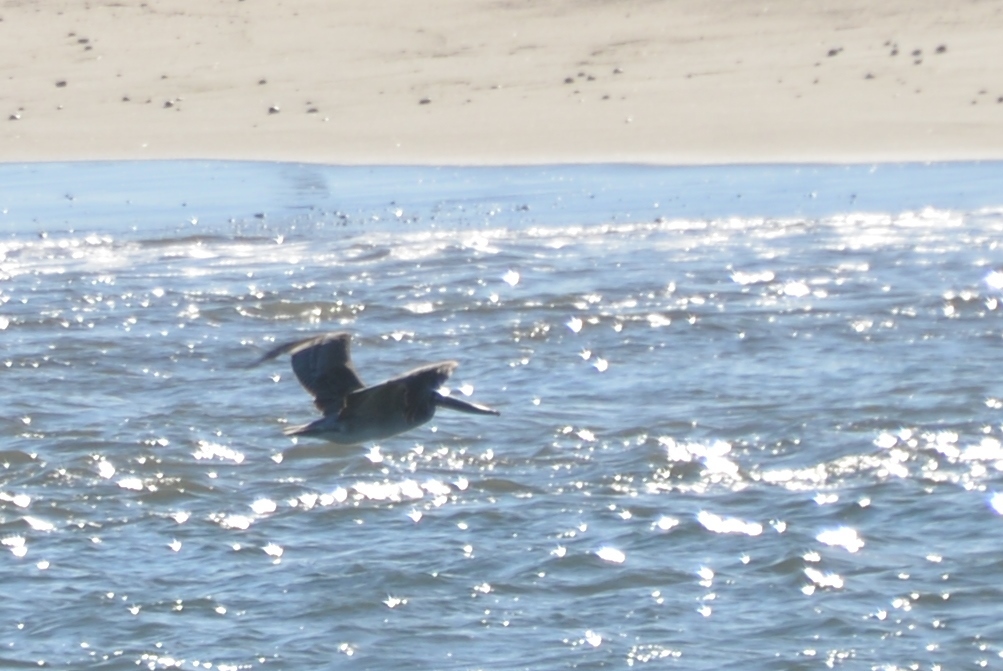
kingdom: Animalia
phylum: Chordata
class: Aves
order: Pelecaniformes
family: Pelecanidae
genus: Pelecanus
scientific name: Pelecanus occidentalis
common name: Brown pelican
